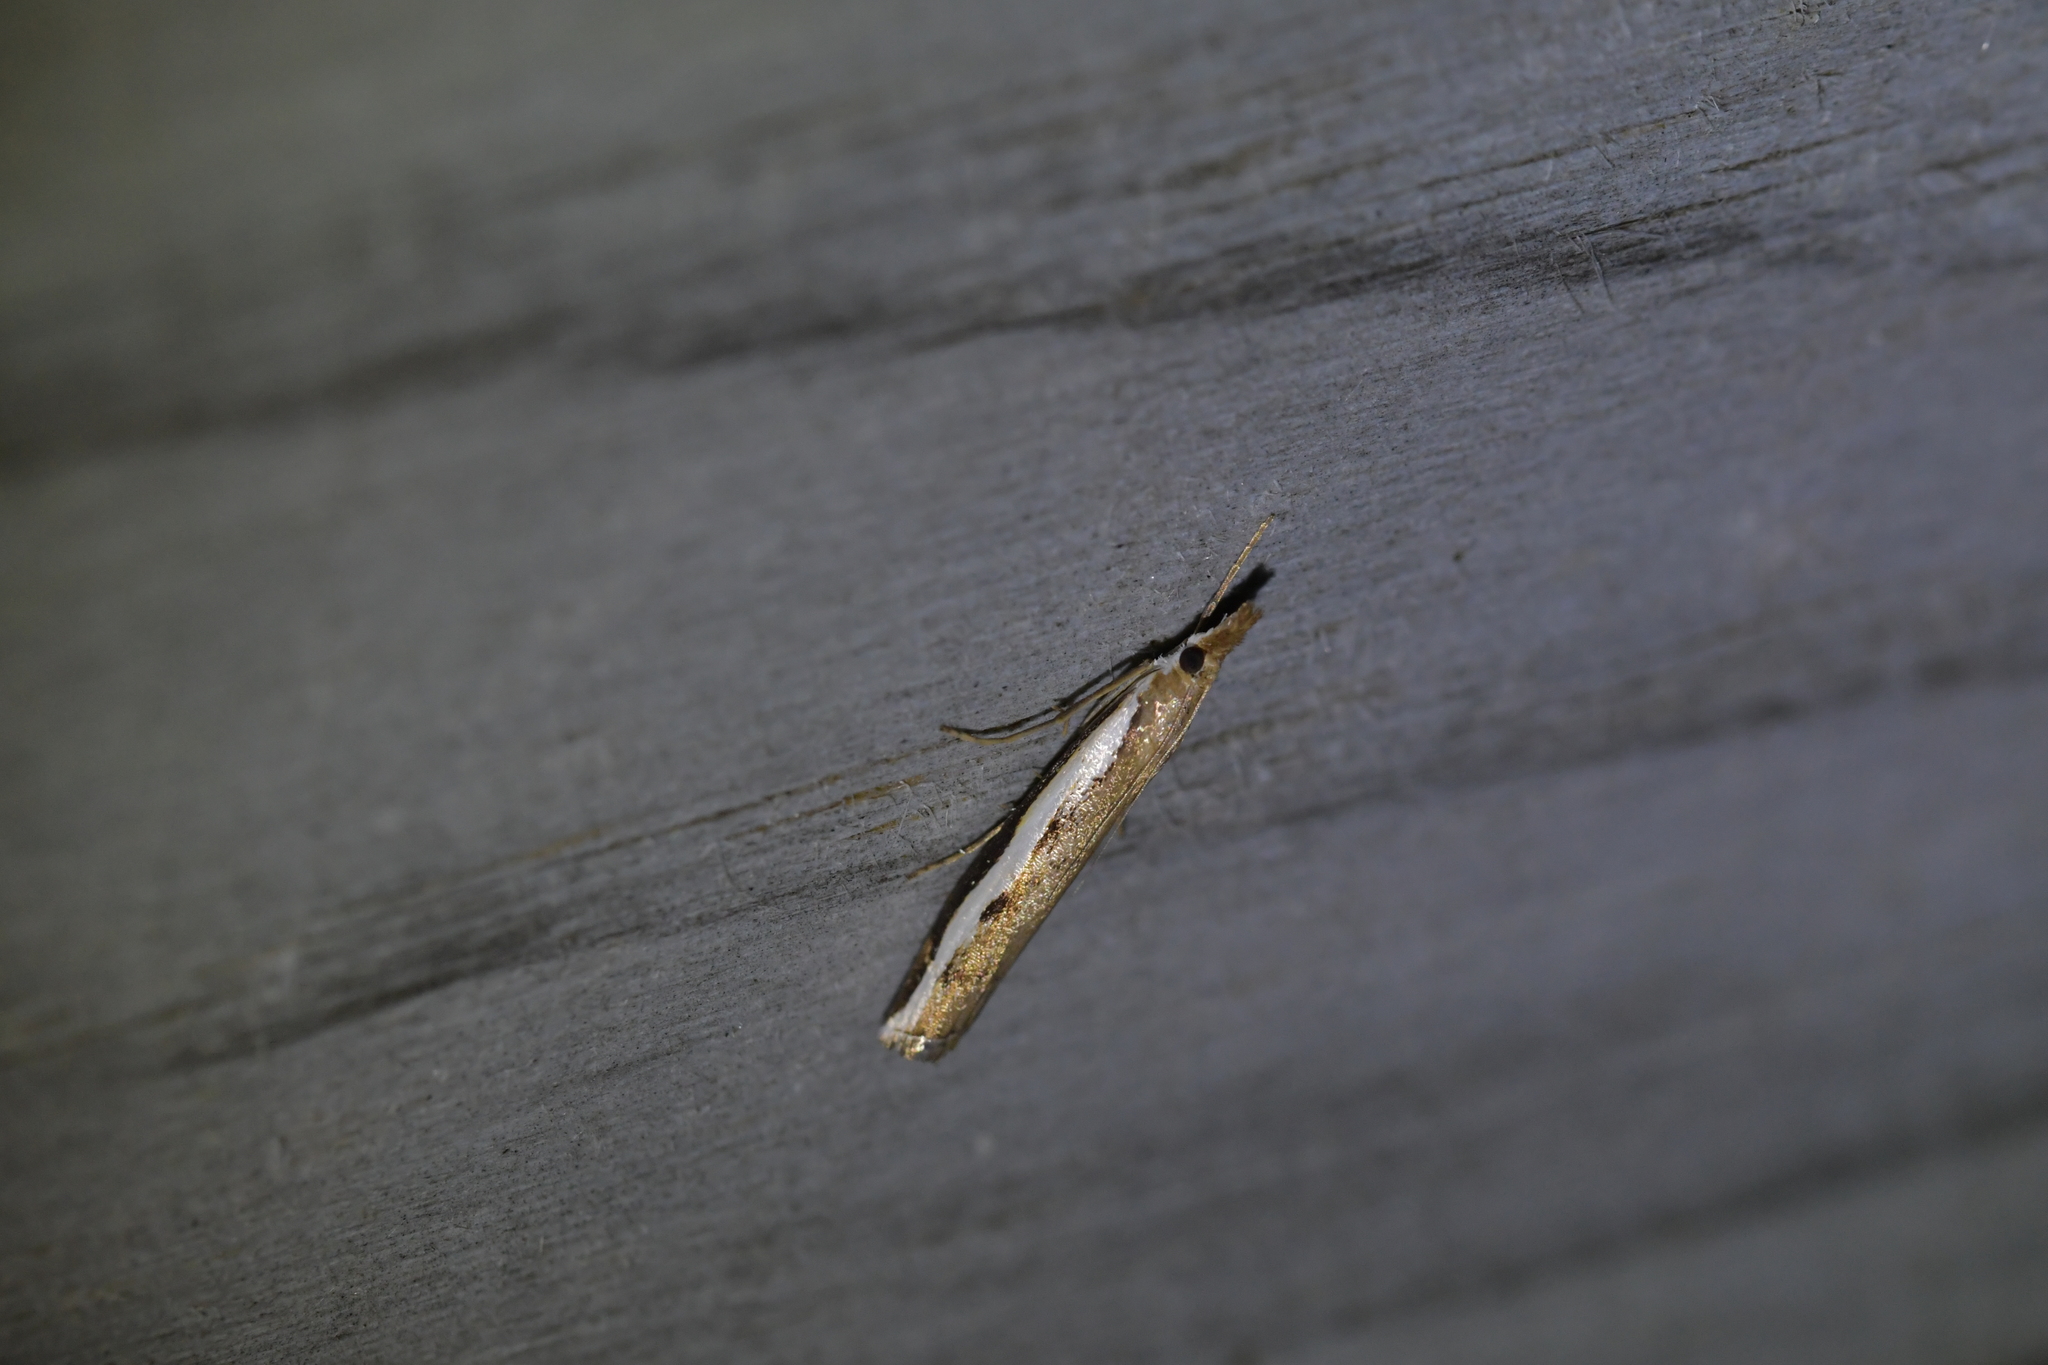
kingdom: Animalia
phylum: Arthropoda
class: Insecta
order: Lepidoptera
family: Crambidae
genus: Orocrambus
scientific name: Orocrambus flexuosellus
